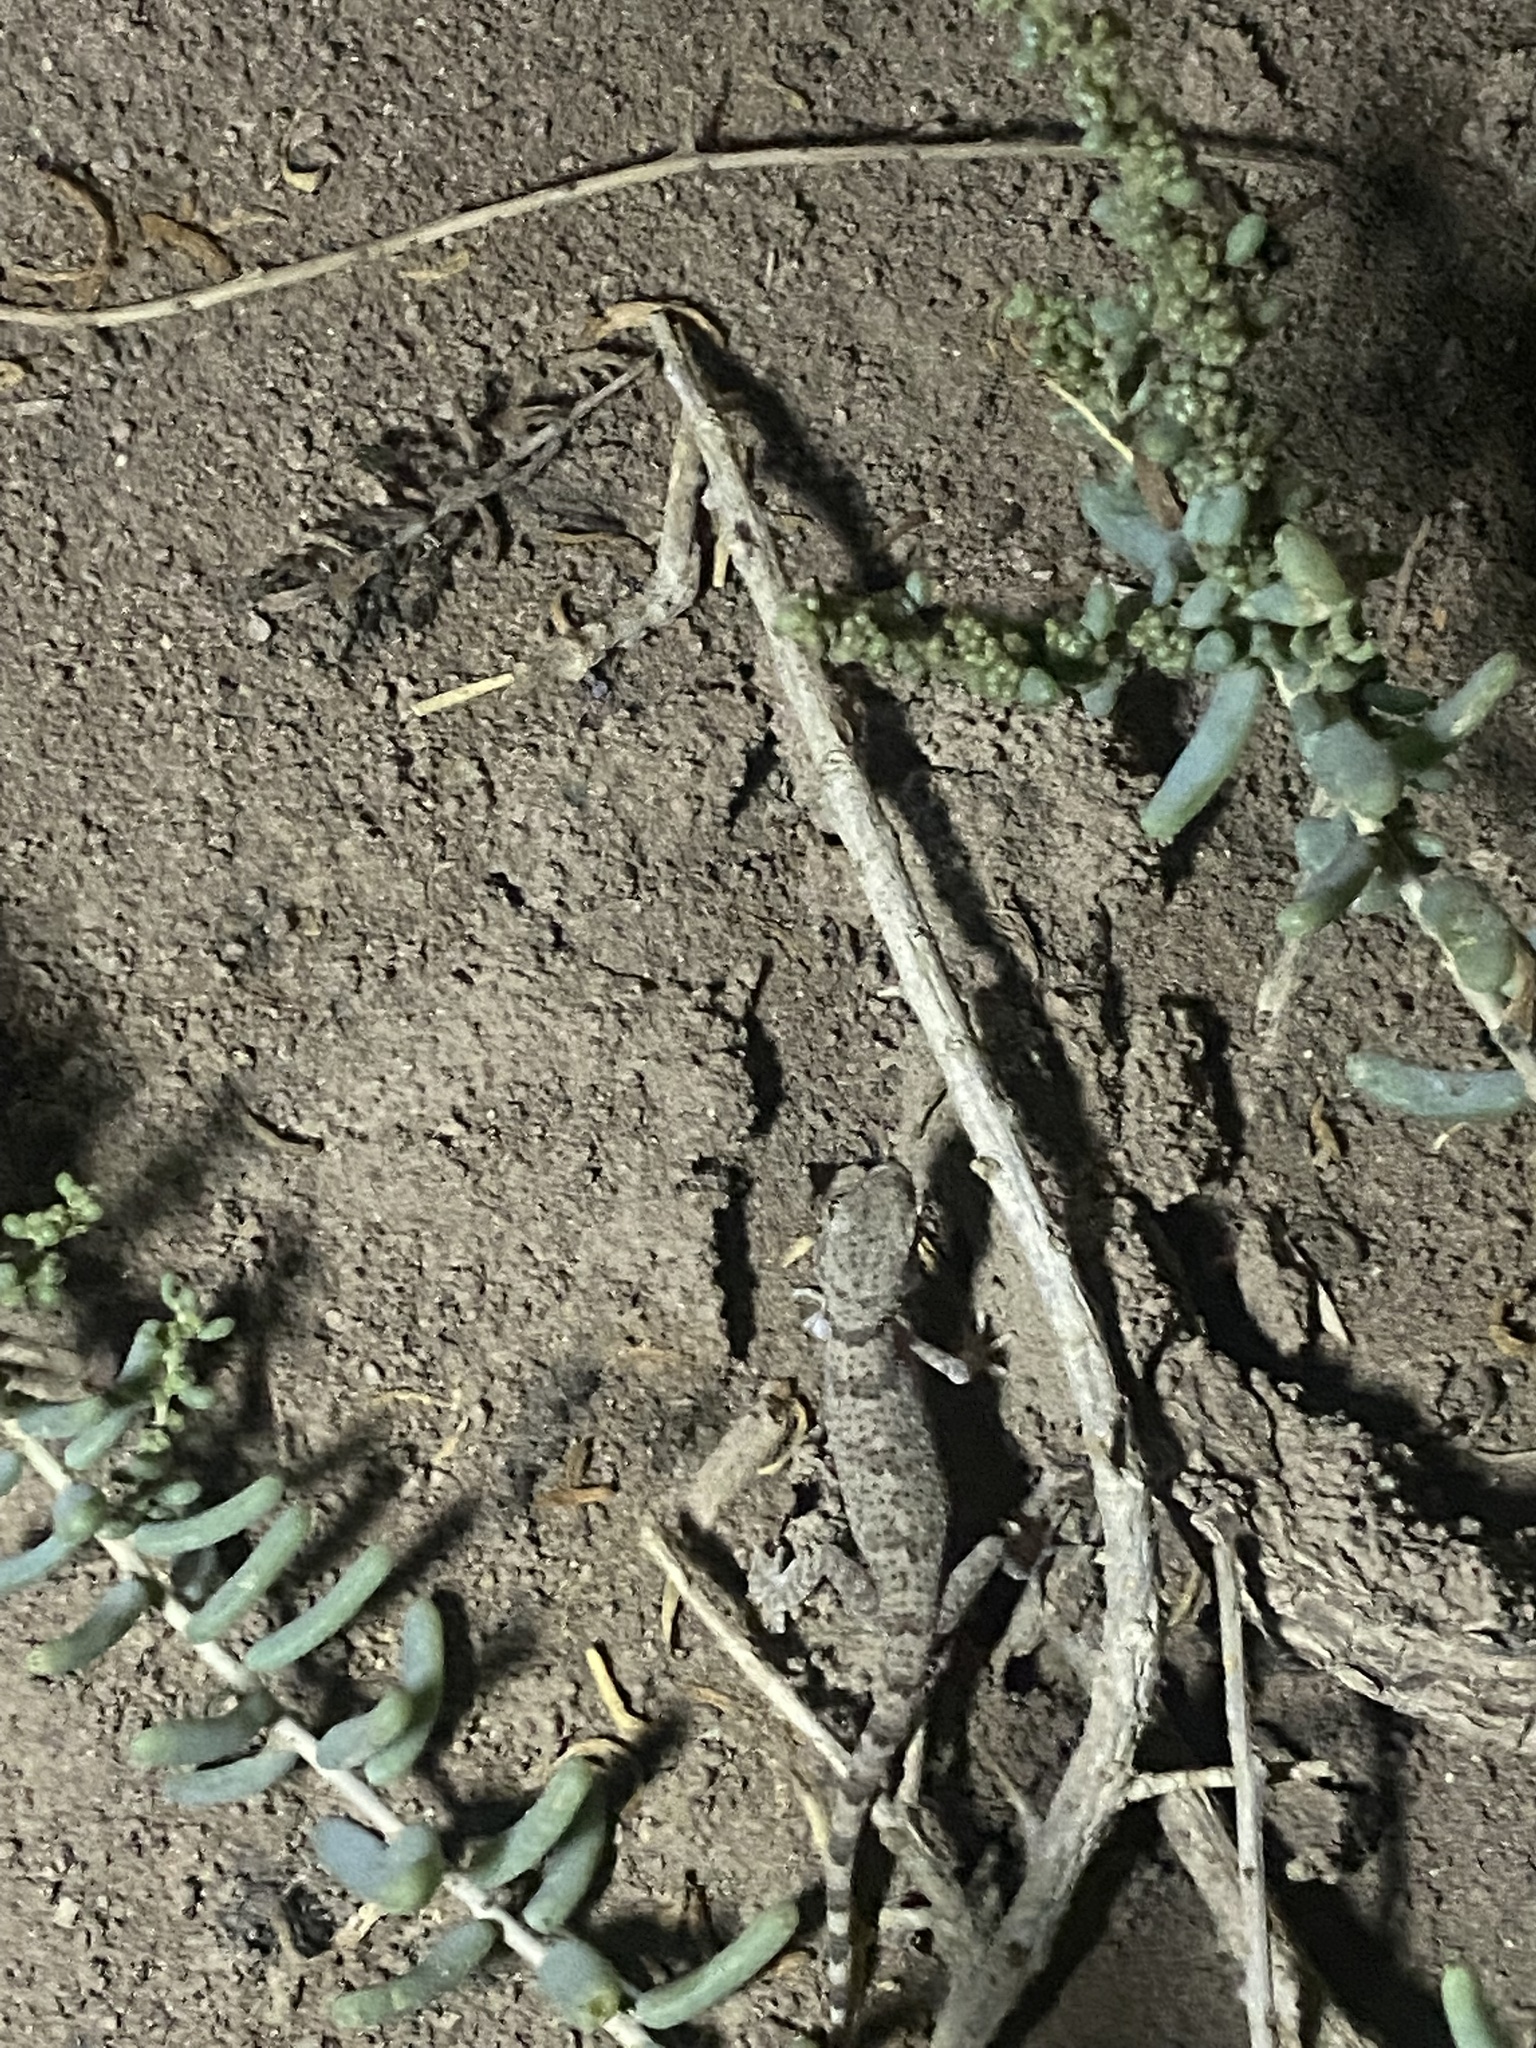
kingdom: Animalia
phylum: Chordata
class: Squamata
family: Gekkonidae
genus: Bunopus
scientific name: Bunopus crassicauda
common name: Thick-tailed tuberculated gecko
